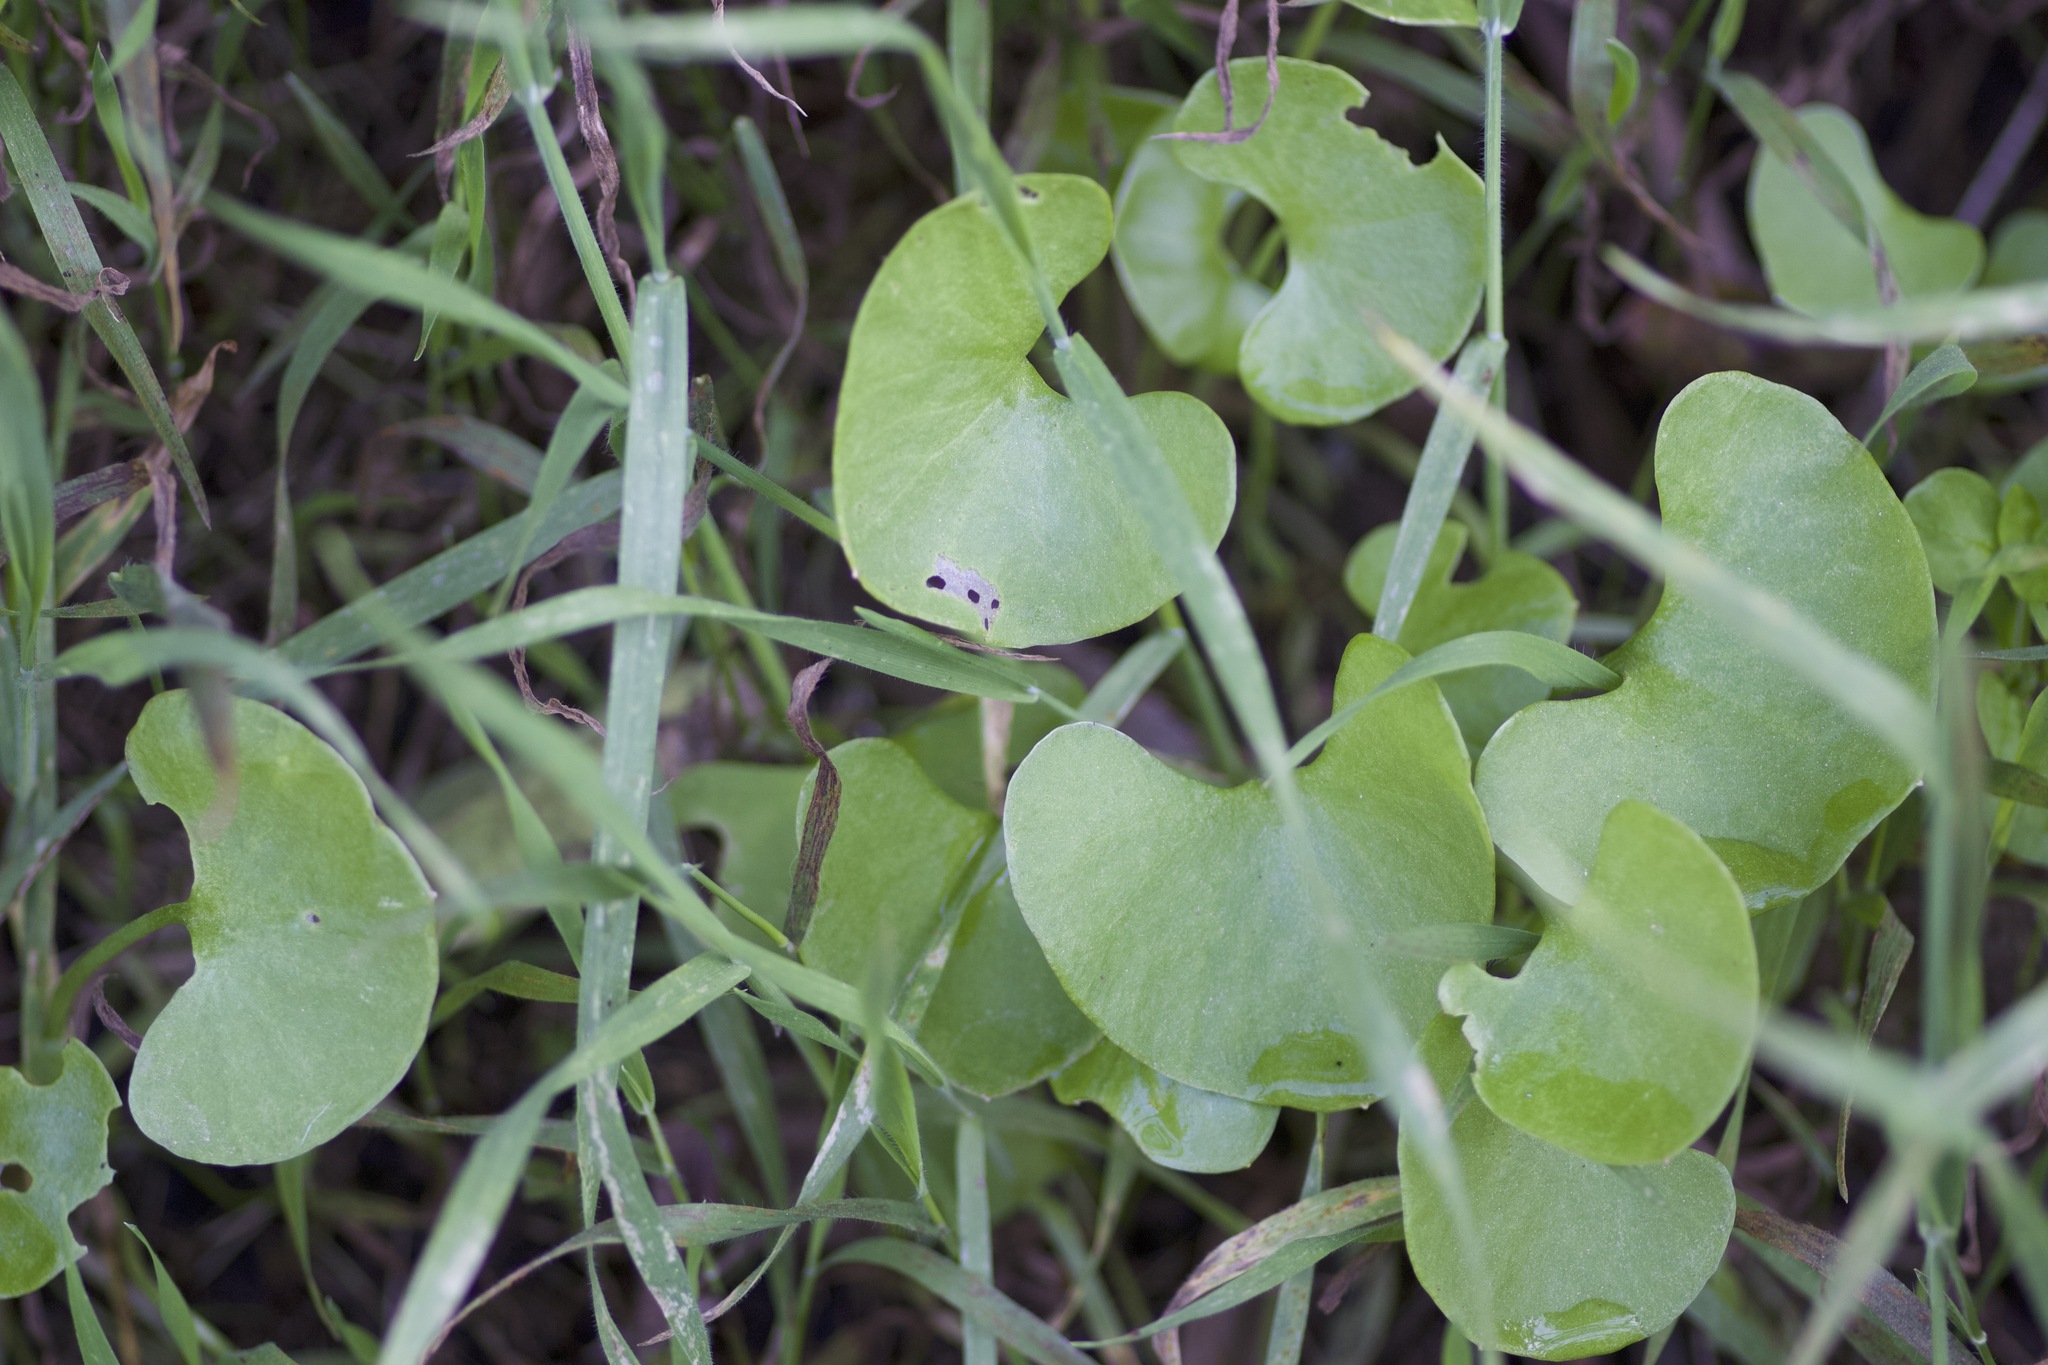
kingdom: Plantae
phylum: Tracheophyta
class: Magnoliopsida
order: Caryophyllales
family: Montiaceae
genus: Claytonia
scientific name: Claytonia perfoliata
